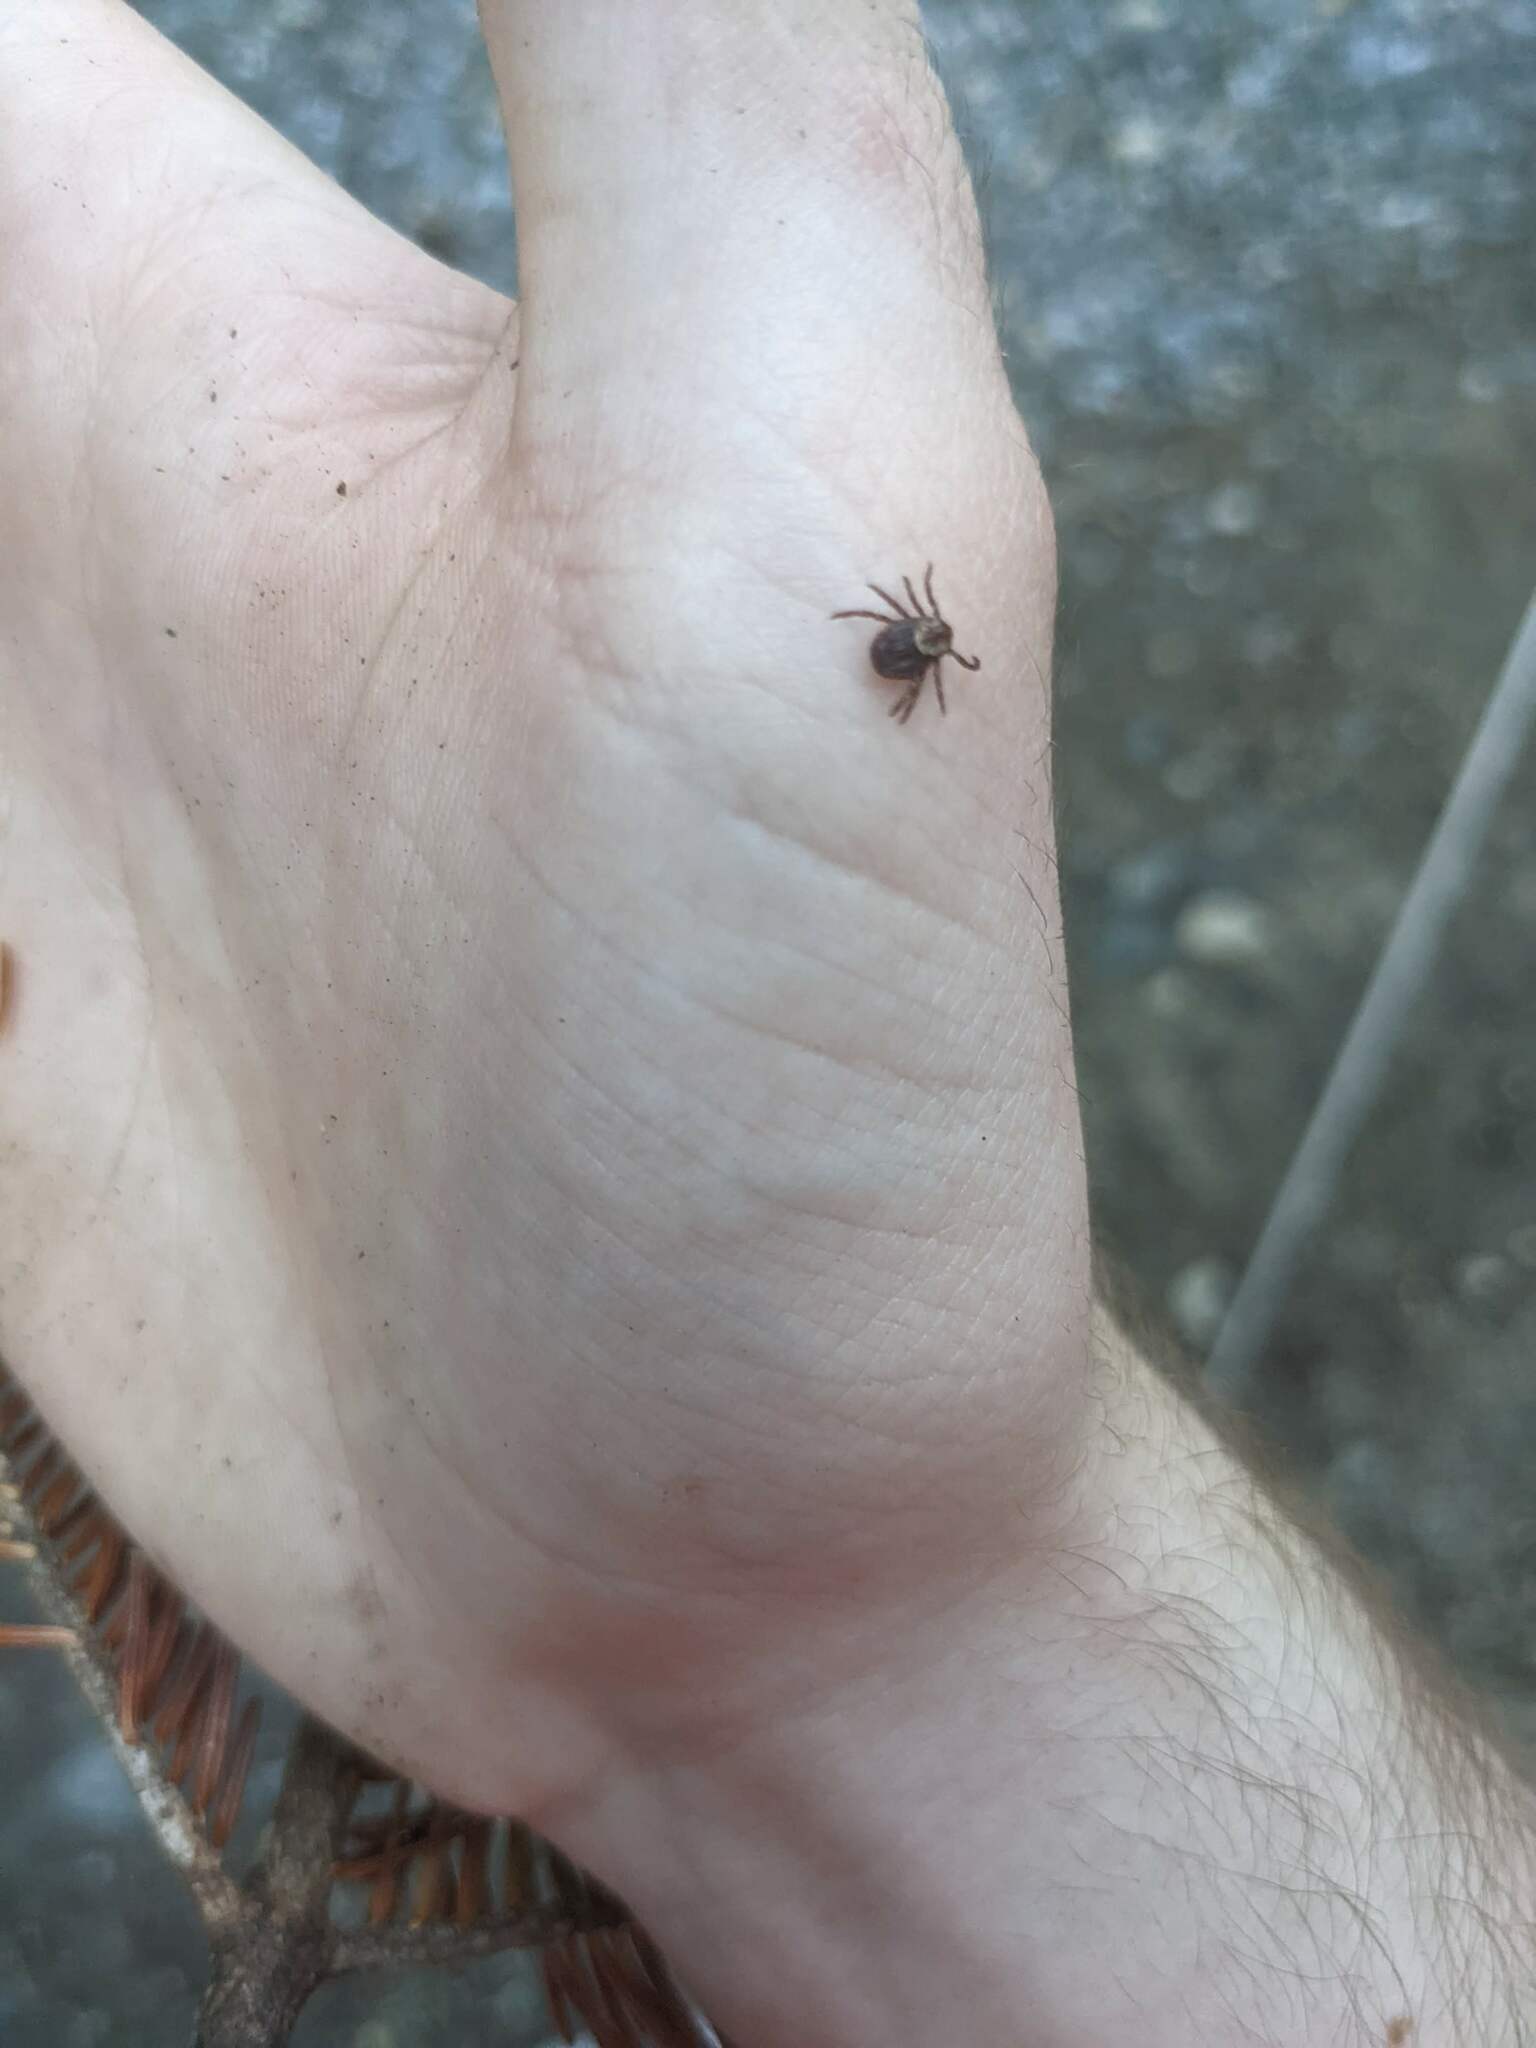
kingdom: Animalia
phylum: Arthropoda
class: Arachnida
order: Ixodida
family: Ixodidae
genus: Dermacentor
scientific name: Dermacentor variabilis
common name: American dog tick
